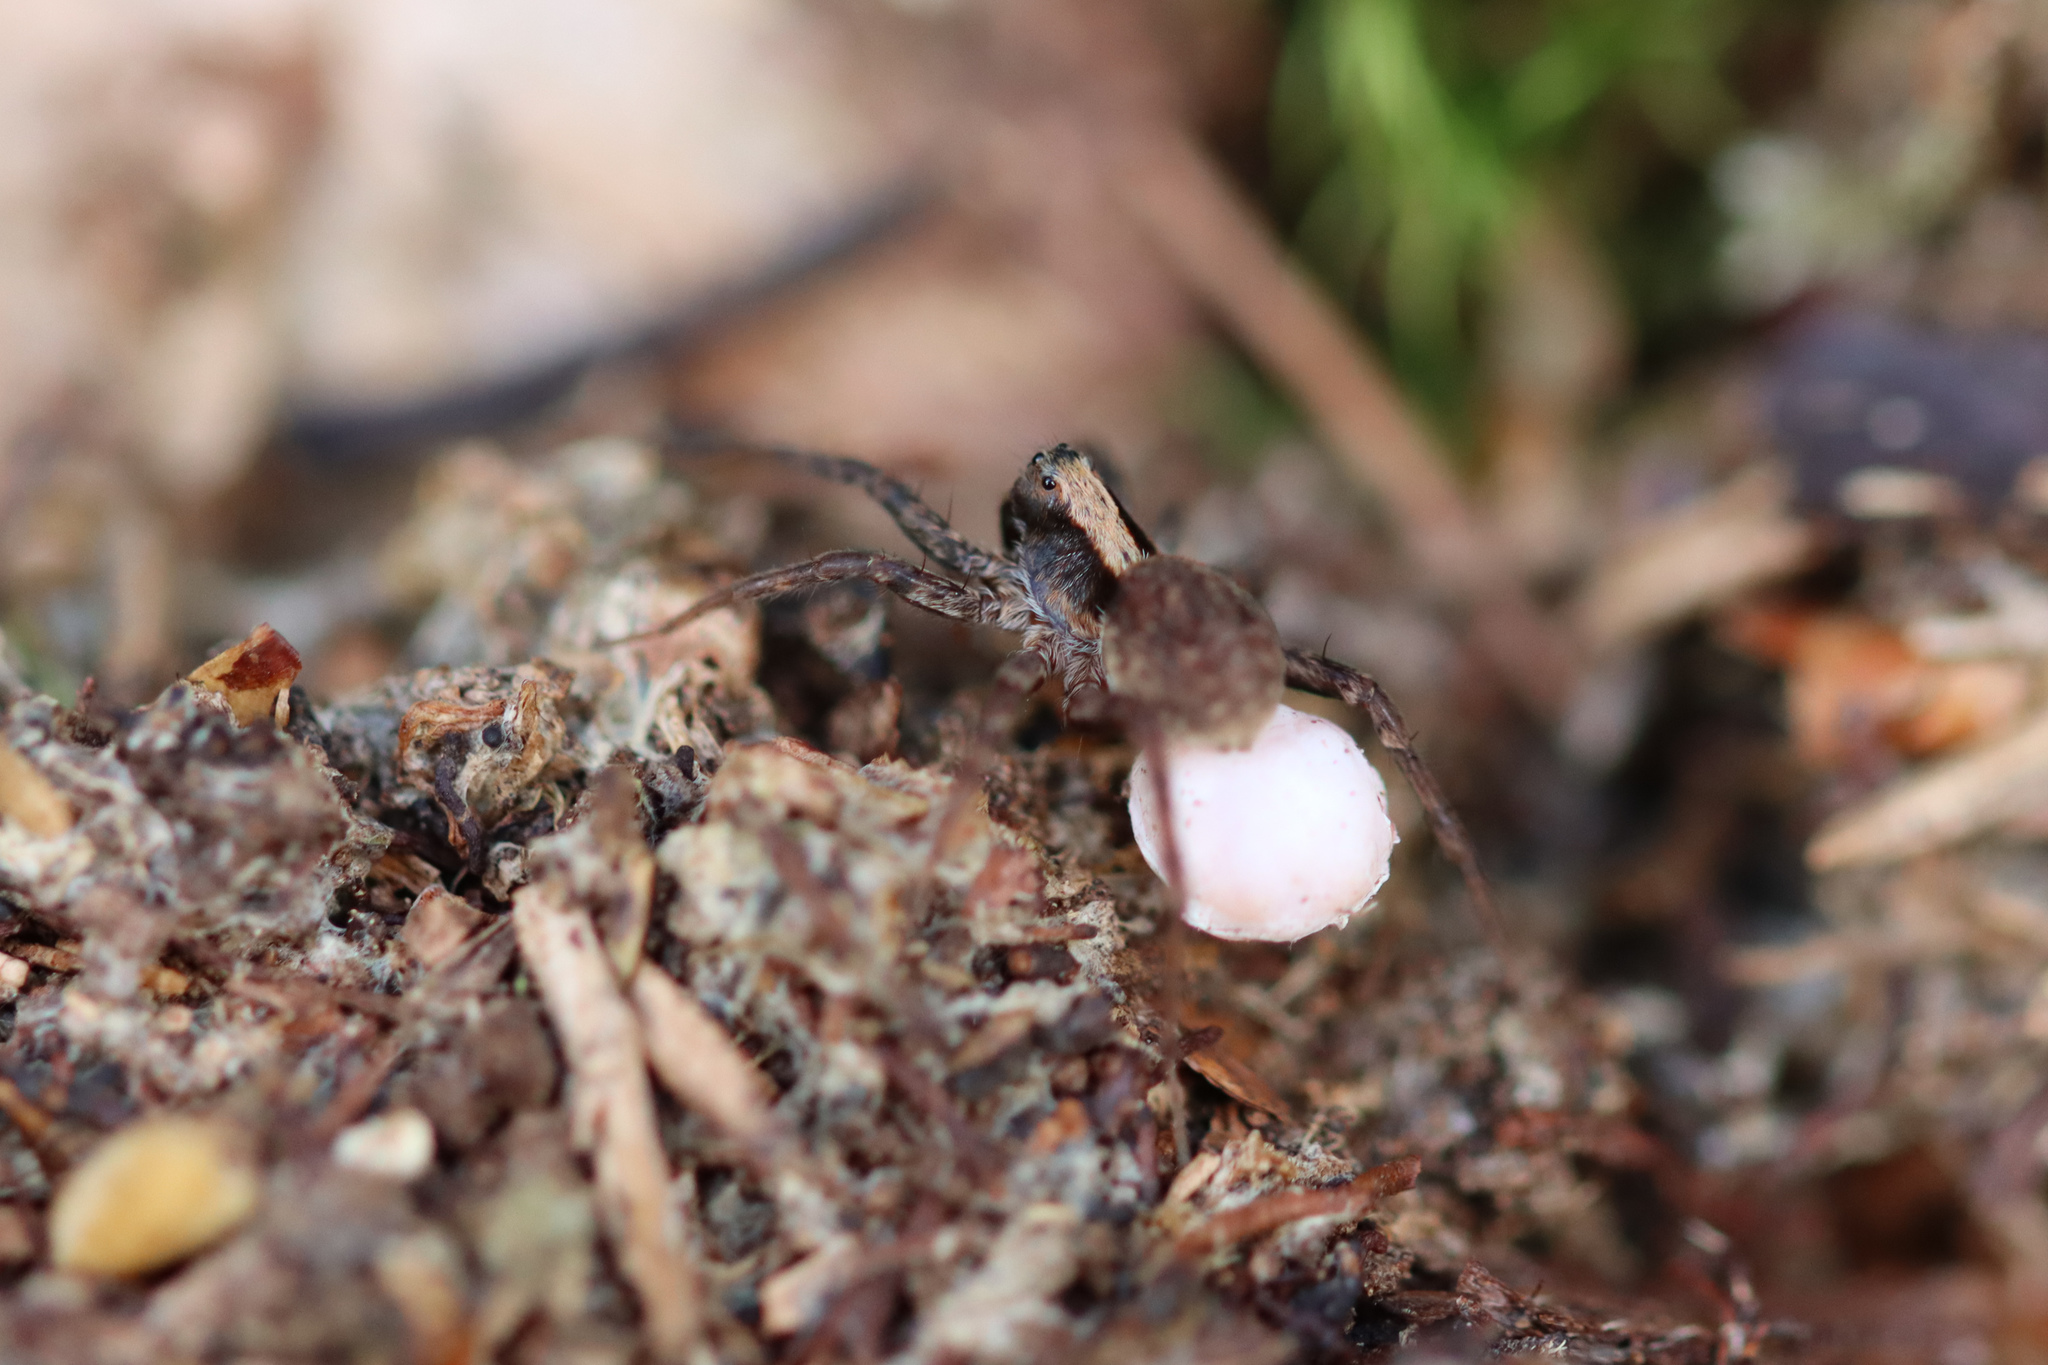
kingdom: Animalia
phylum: Arthropoda
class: Arachnida
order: Araneae
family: Lycosidae
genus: Xerolycosa
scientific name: Xerolycosa nemoralis
